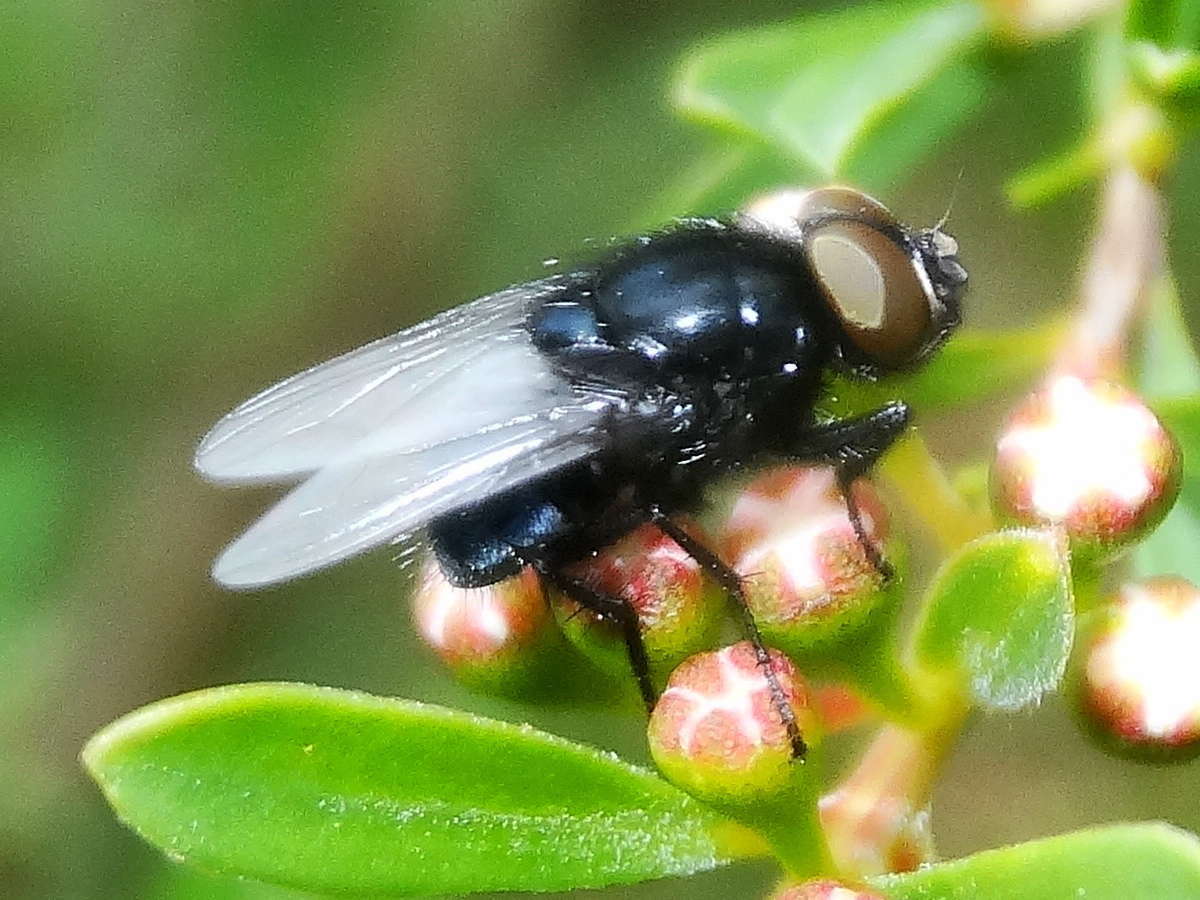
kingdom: Animalia
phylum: Arthropoda
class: Insecta
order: Diptera
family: Muscidae
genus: Australophyra
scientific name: Australophyra rostrata
